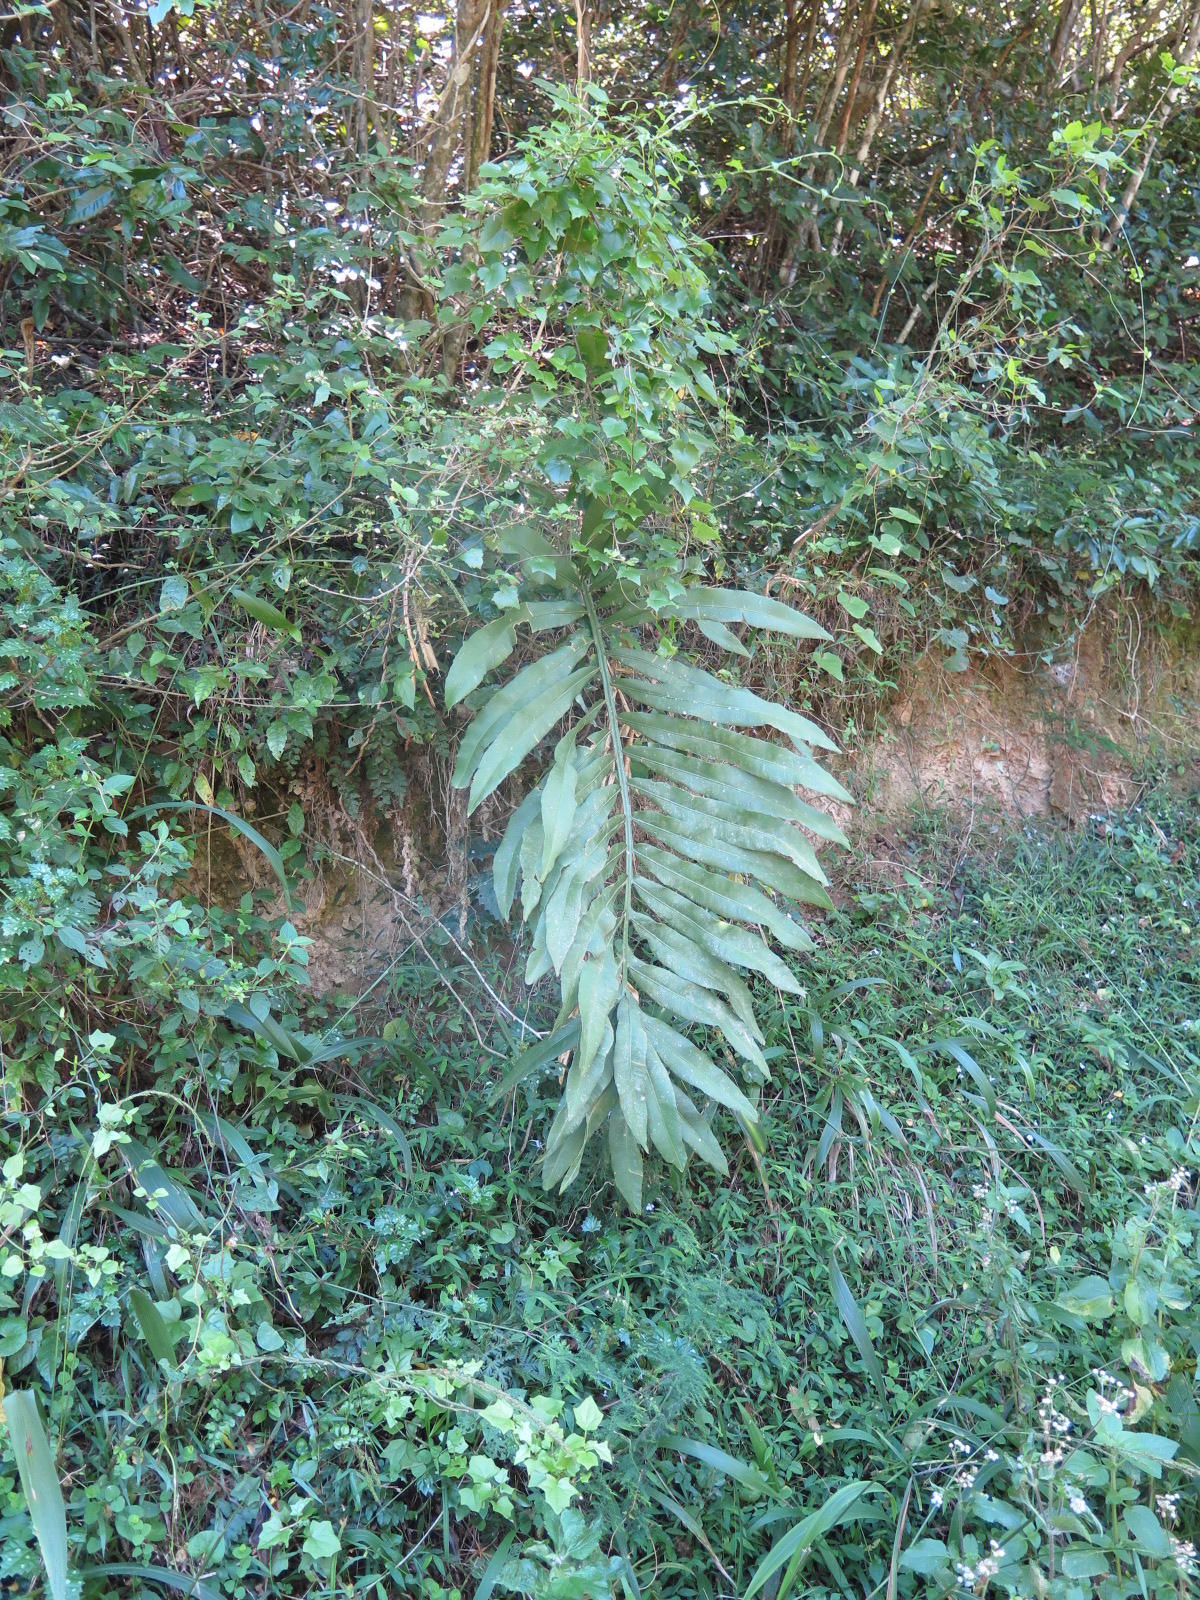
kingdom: Plantae
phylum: Tracheophyta
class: Cycadopsida
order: Cycadales
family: Zamiaceae
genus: Stangeria
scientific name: Stangeria eriopus
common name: Natal grass cycad
